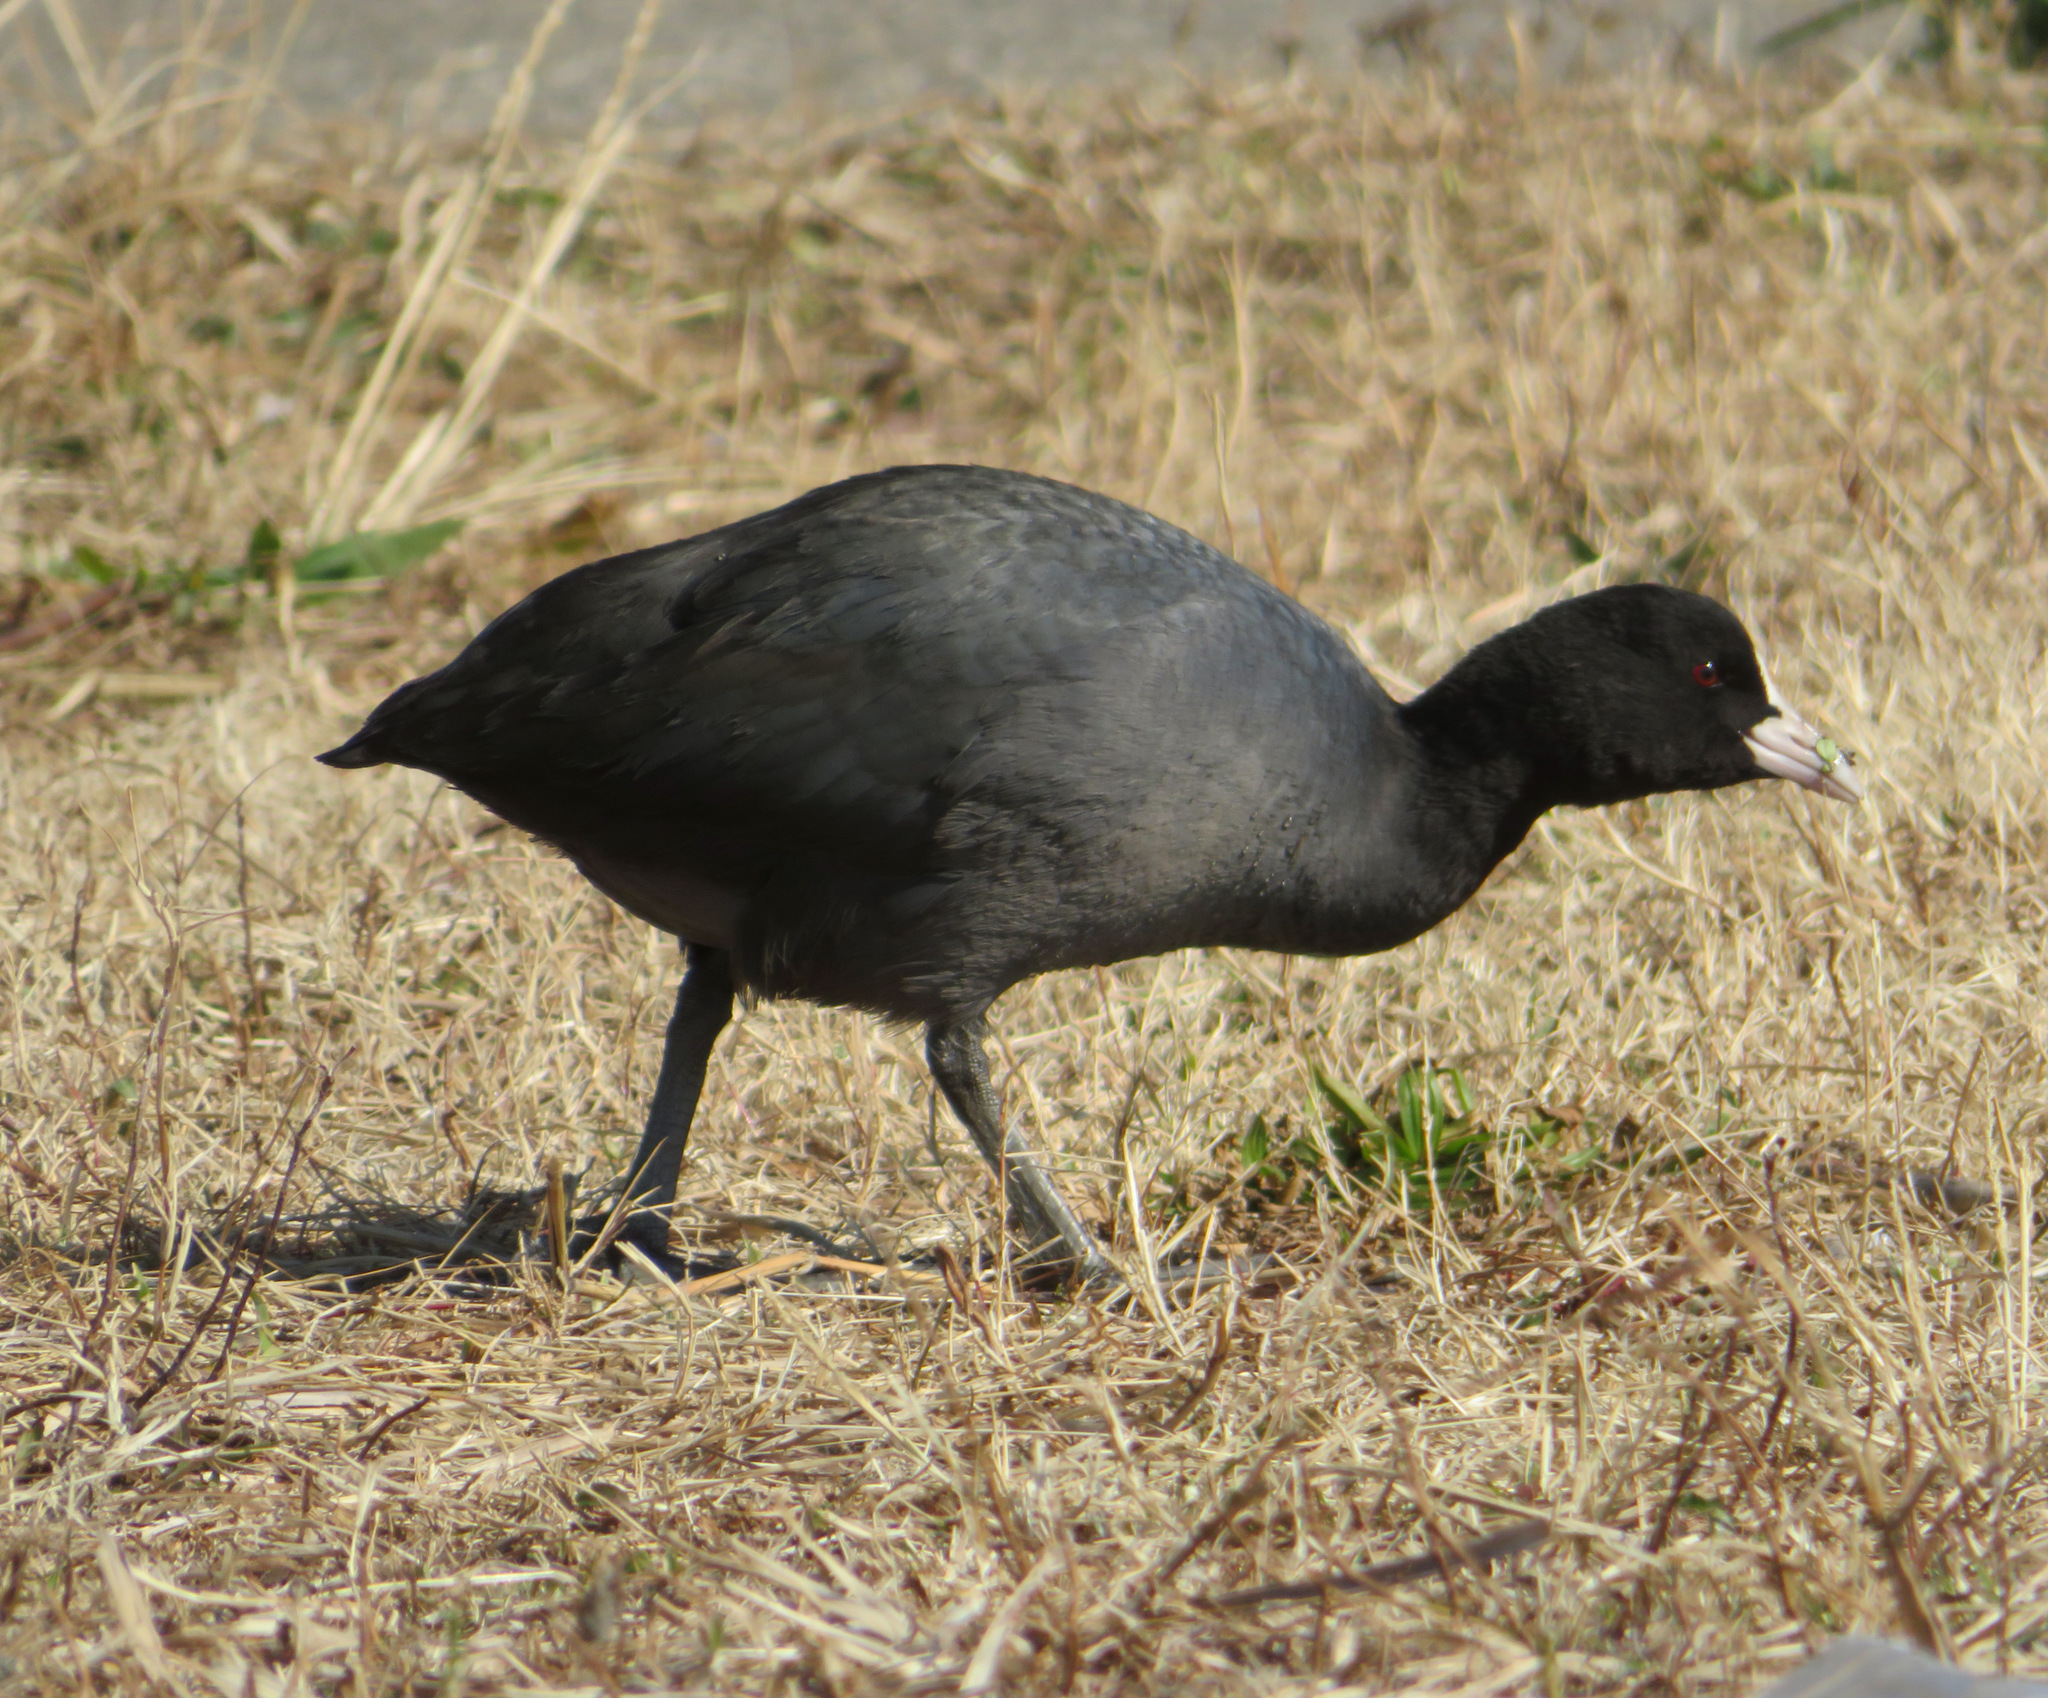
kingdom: Animalia
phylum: Chordata
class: Aves
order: Gruiformes
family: Rallidae
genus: Fulica
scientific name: Fulica atra
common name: Eurasian coot
